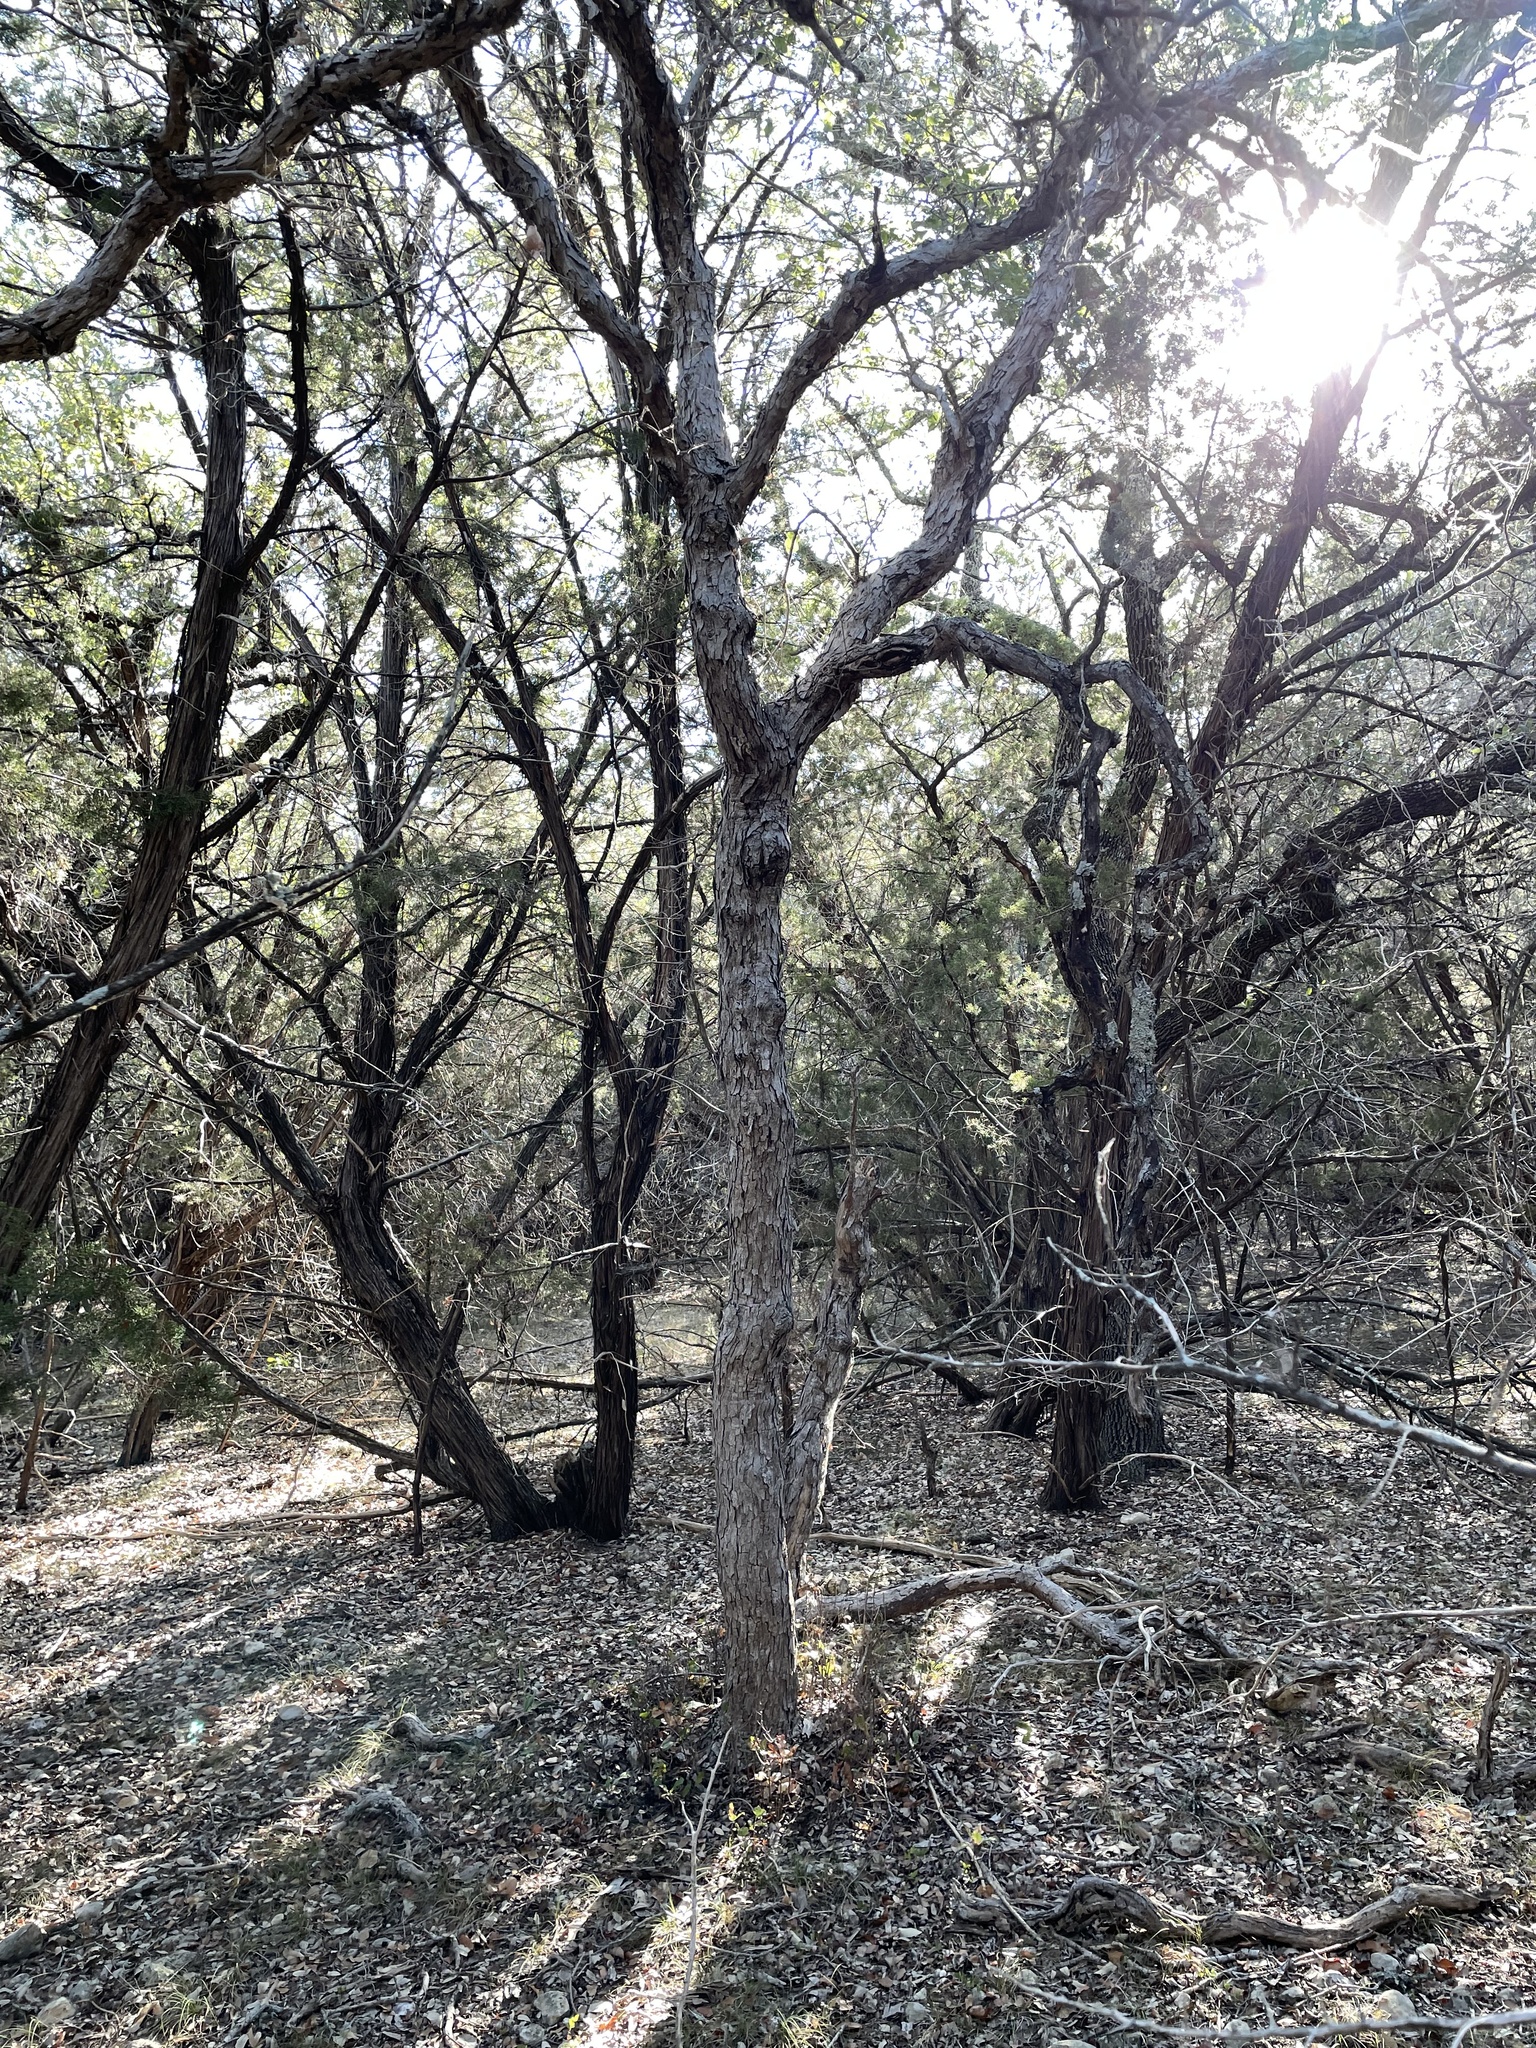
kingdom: Plantae
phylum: Tracheophyta
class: Magnoliopsida
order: Fagales
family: Fagaceae
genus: Quercus
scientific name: Quercus sinuata
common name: Durand oak
